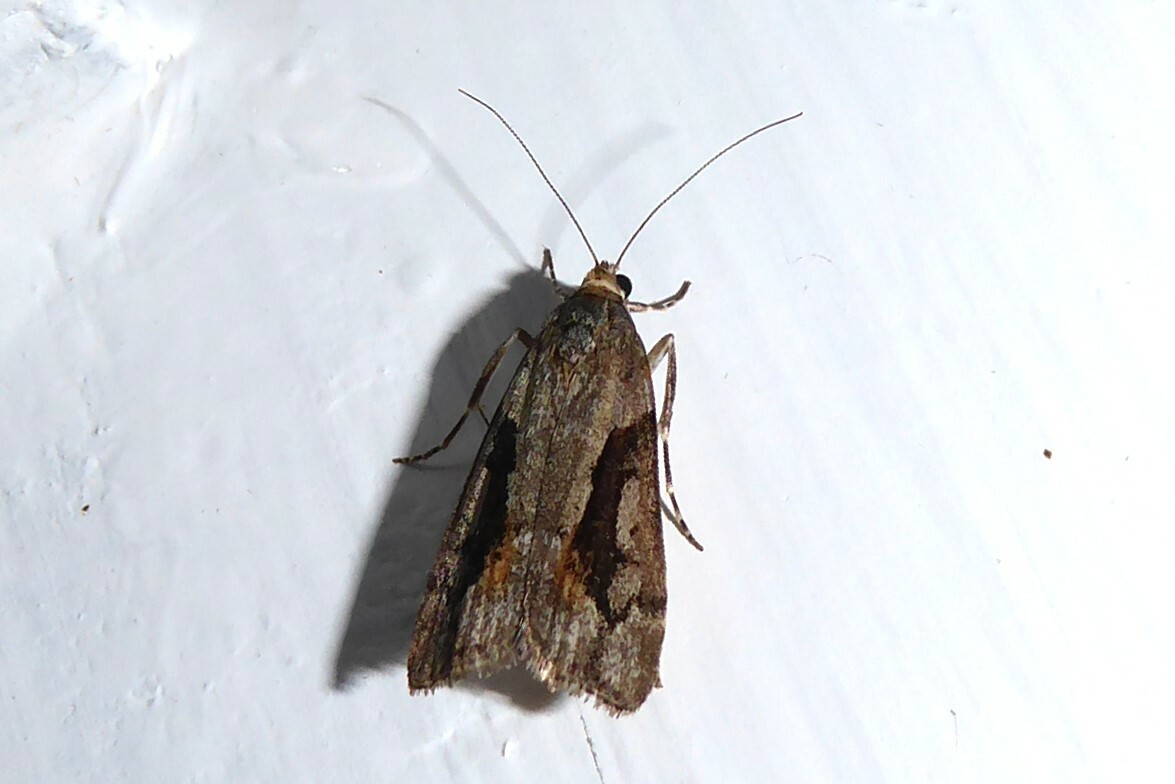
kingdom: Animalia
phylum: Arthropoda
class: Insecta
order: Lepidoptera
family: Crambidae
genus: Eudonia
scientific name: Eudonia submarginalis
